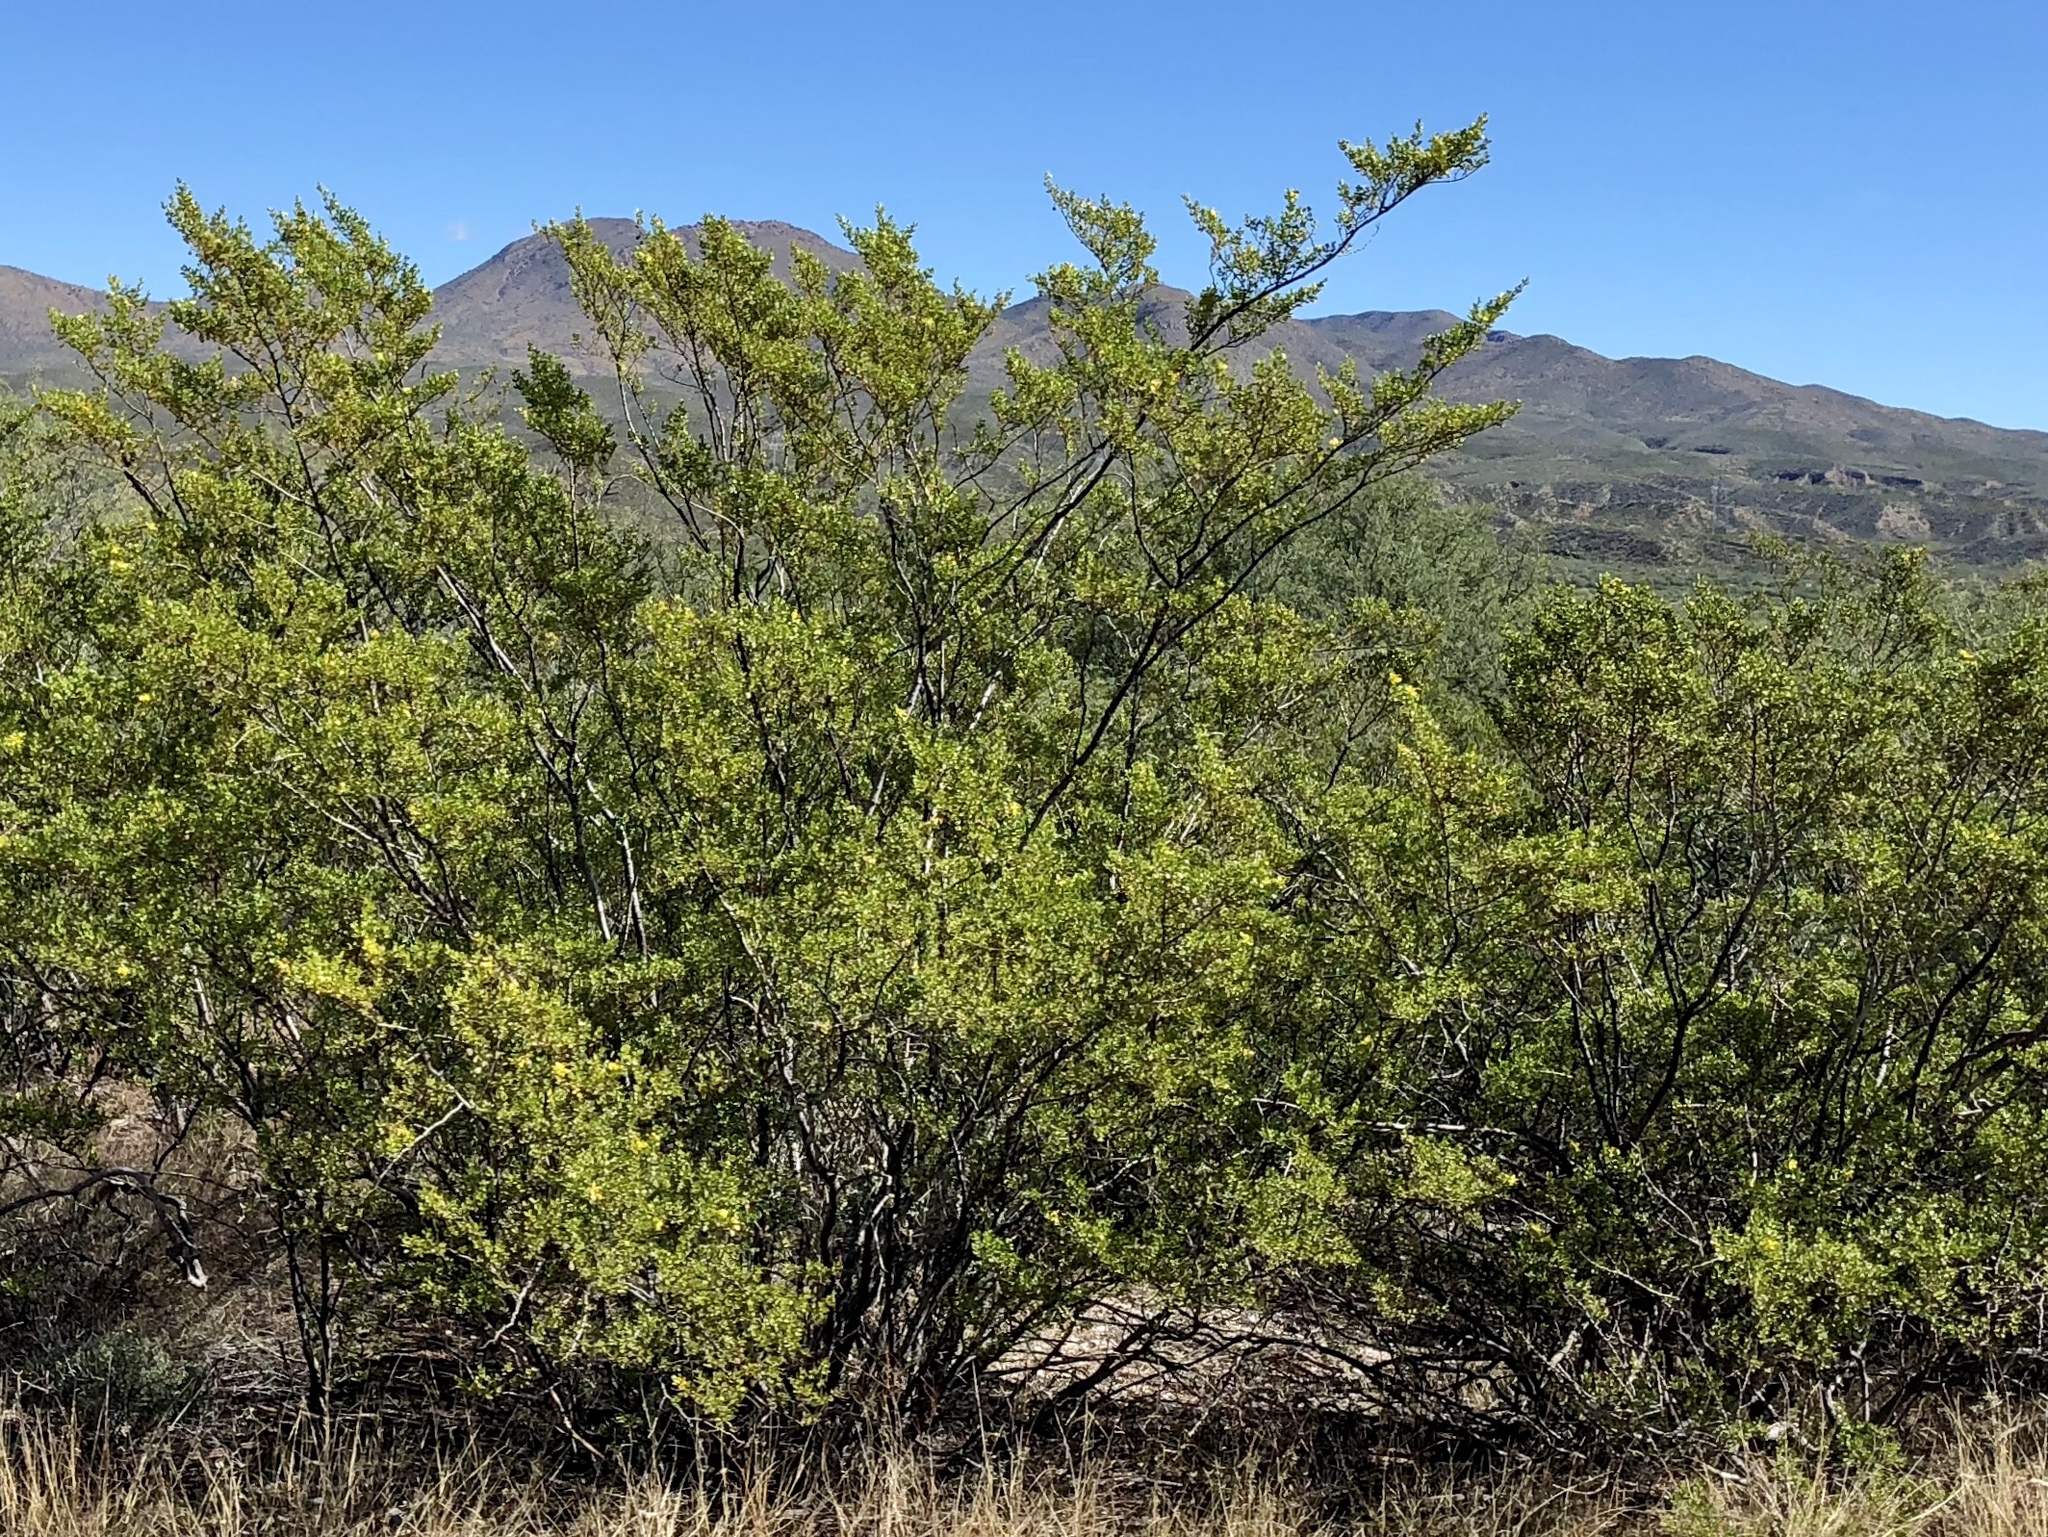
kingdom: Plantae
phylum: Tracheophyta
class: Magnoliopsida
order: Zygophyllales
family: Zygophyllaceae
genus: Larrea
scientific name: Larrea tridentata
